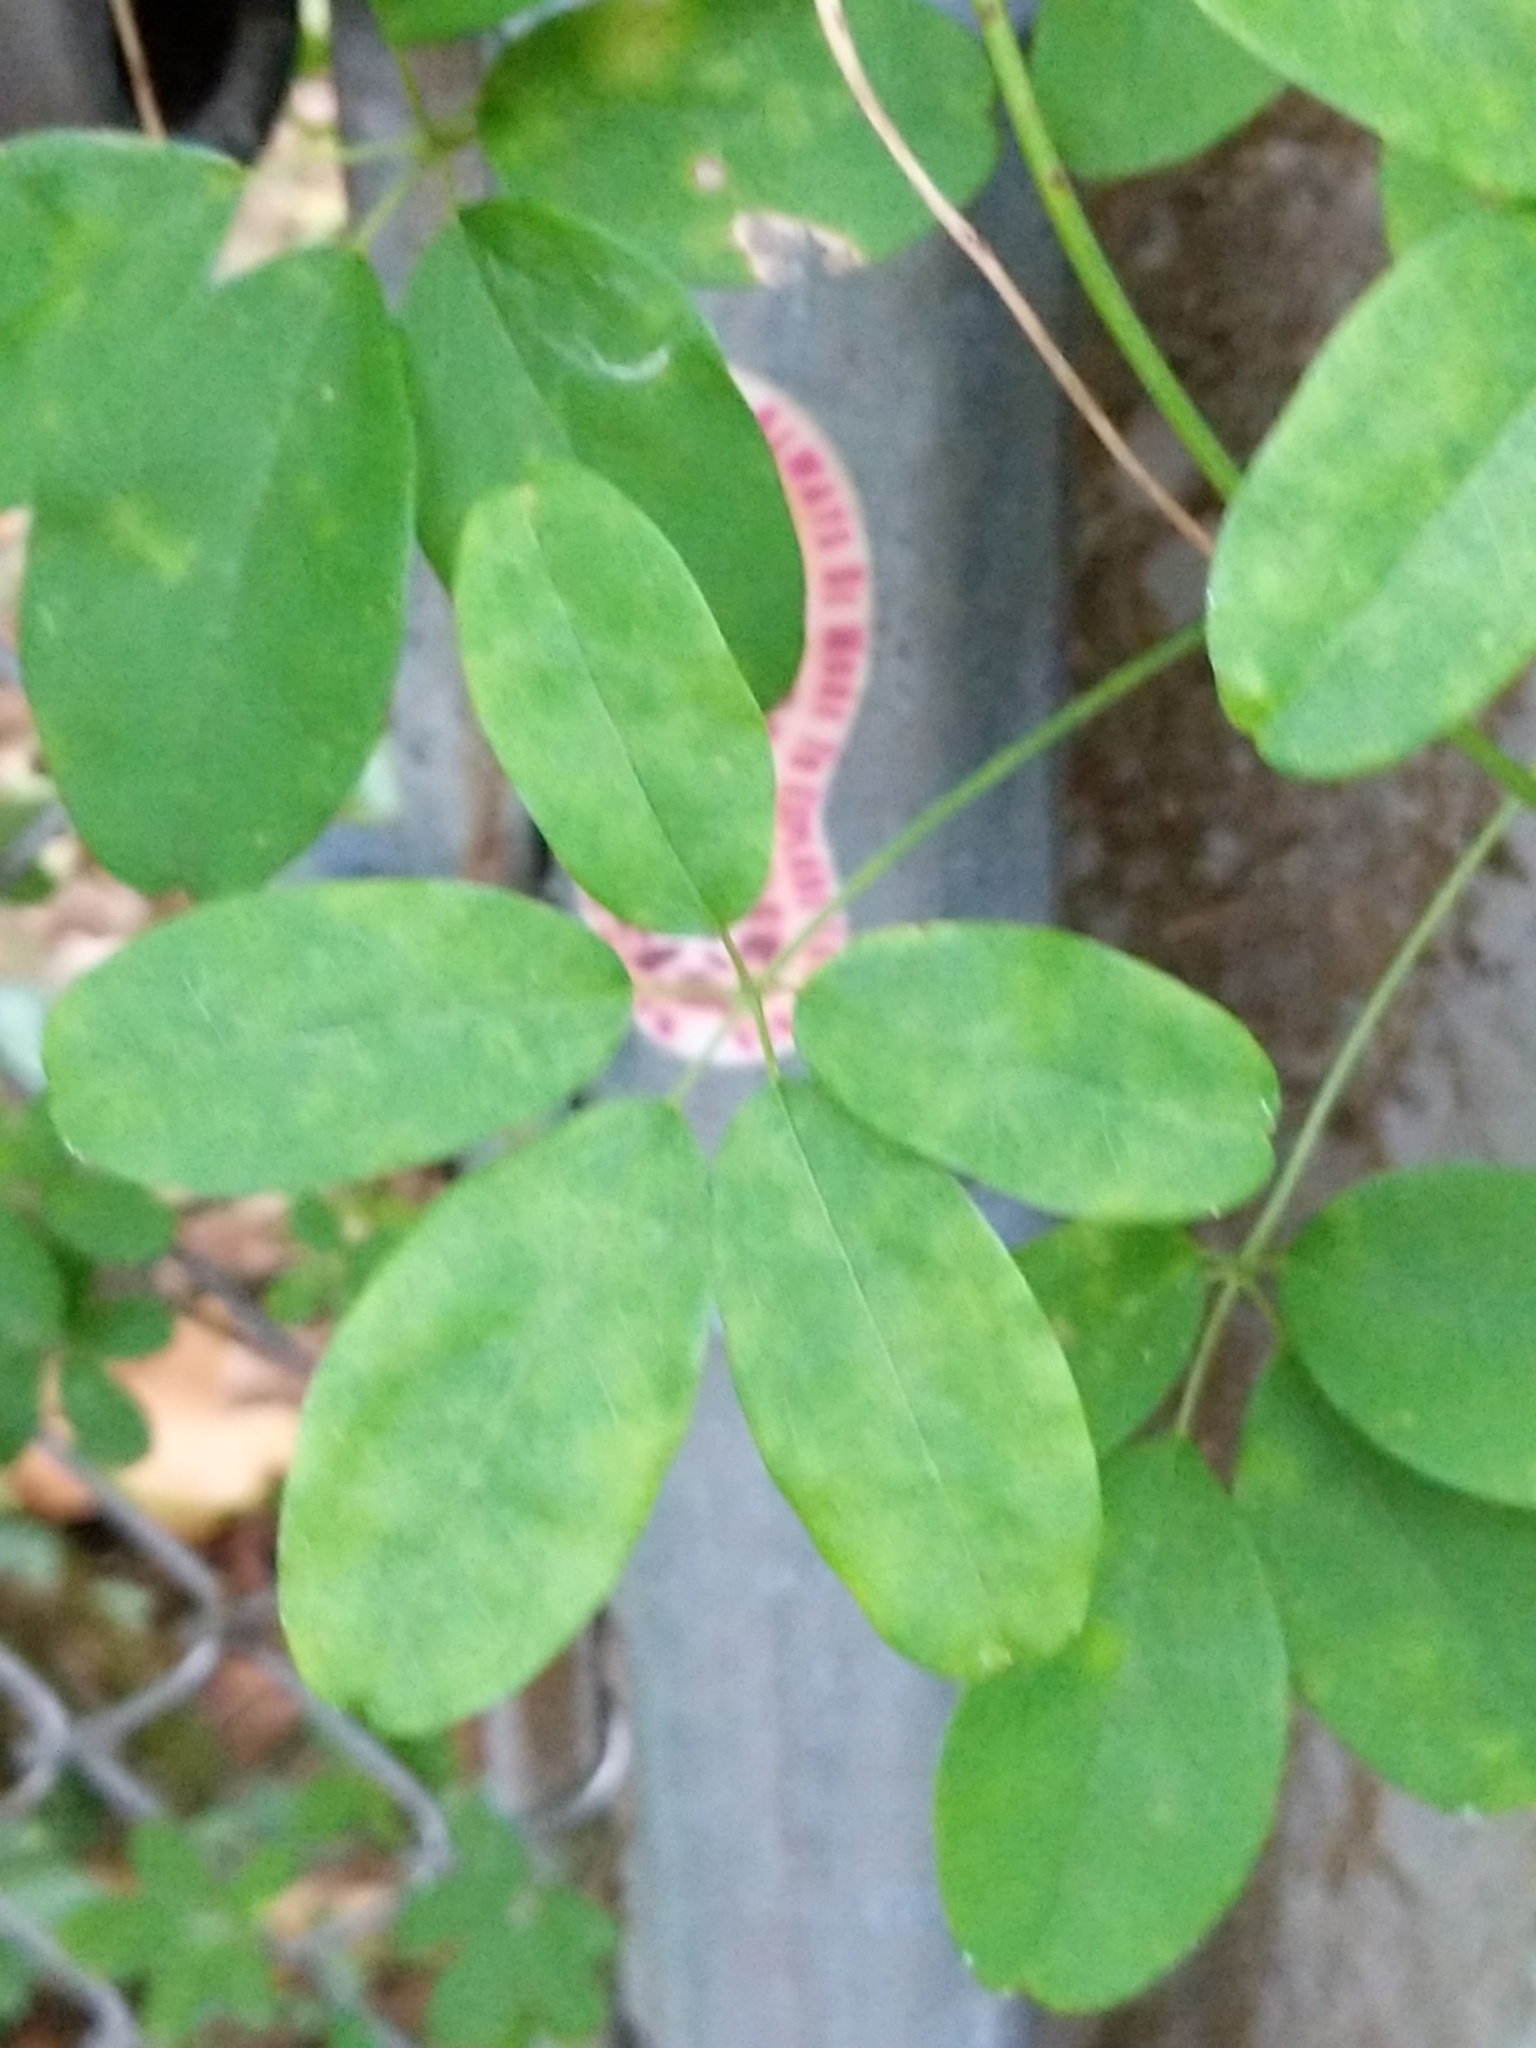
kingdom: Plantae
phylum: Tracheophyta
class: Magnoliopsida
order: Ranunculales
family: Lardizabalaceae
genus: Akebia
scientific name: Akebia quinata
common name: Five-leaf akebia
